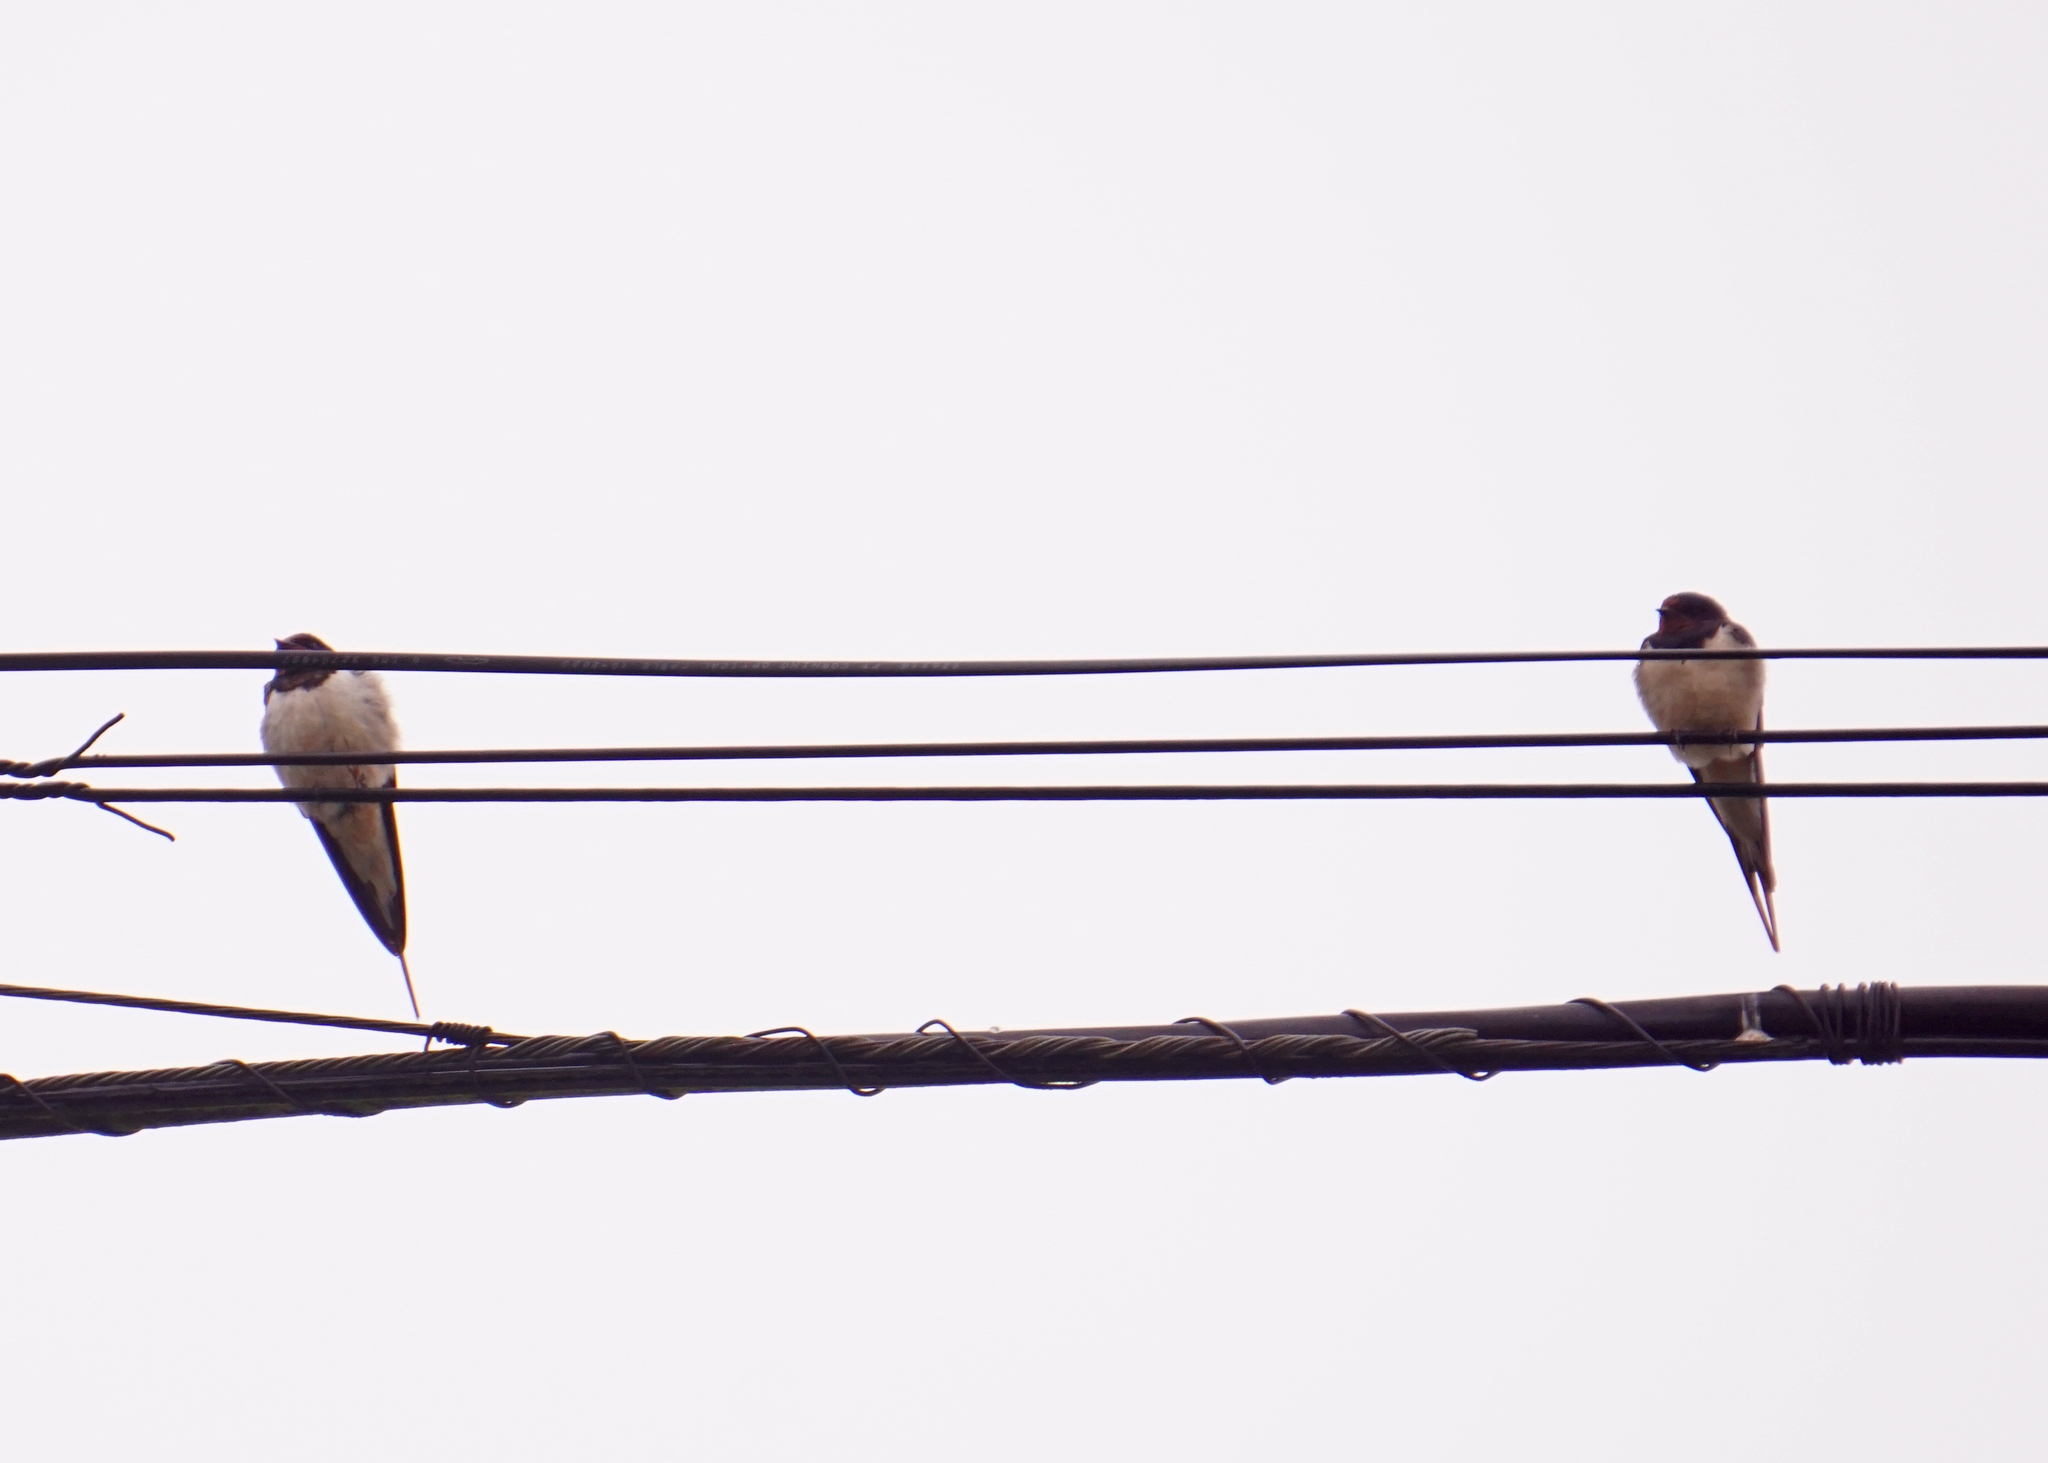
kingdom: Animalia
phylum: Chordata
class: Aves
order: Passeriformes
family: Hirundinidae
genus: Hirundo
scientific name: Hirundo rustica
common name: Barn swallow
